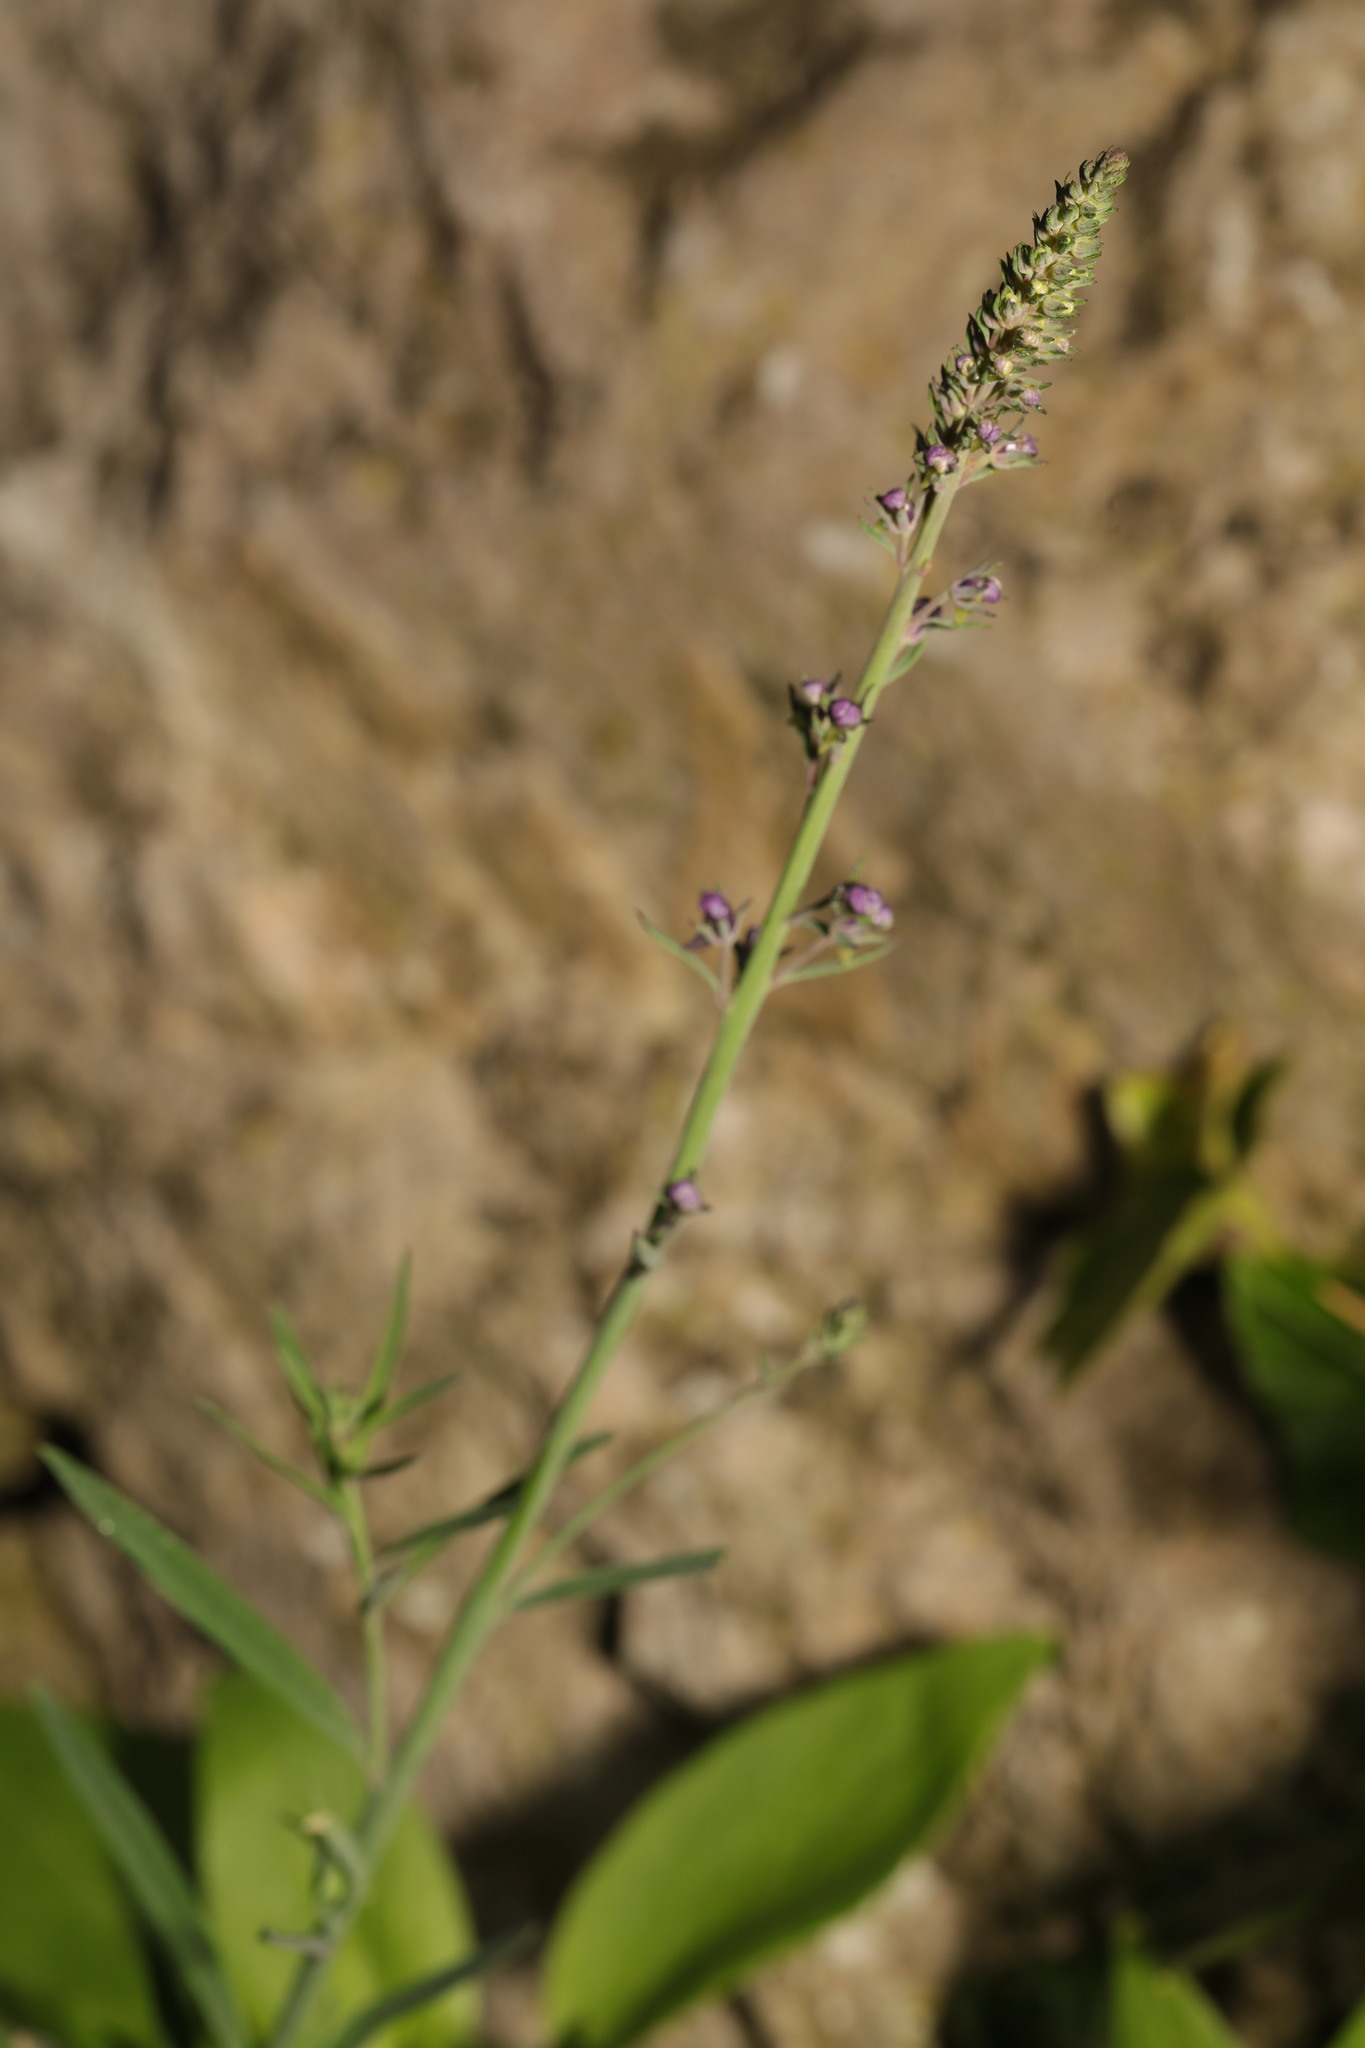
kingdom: Plantae
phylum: Tracheophyta
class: Magnoliopsida
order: Lamiales
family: Plantaginaceae
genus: Linaria
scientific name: Linaria purpurea
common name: Purple toadflax
